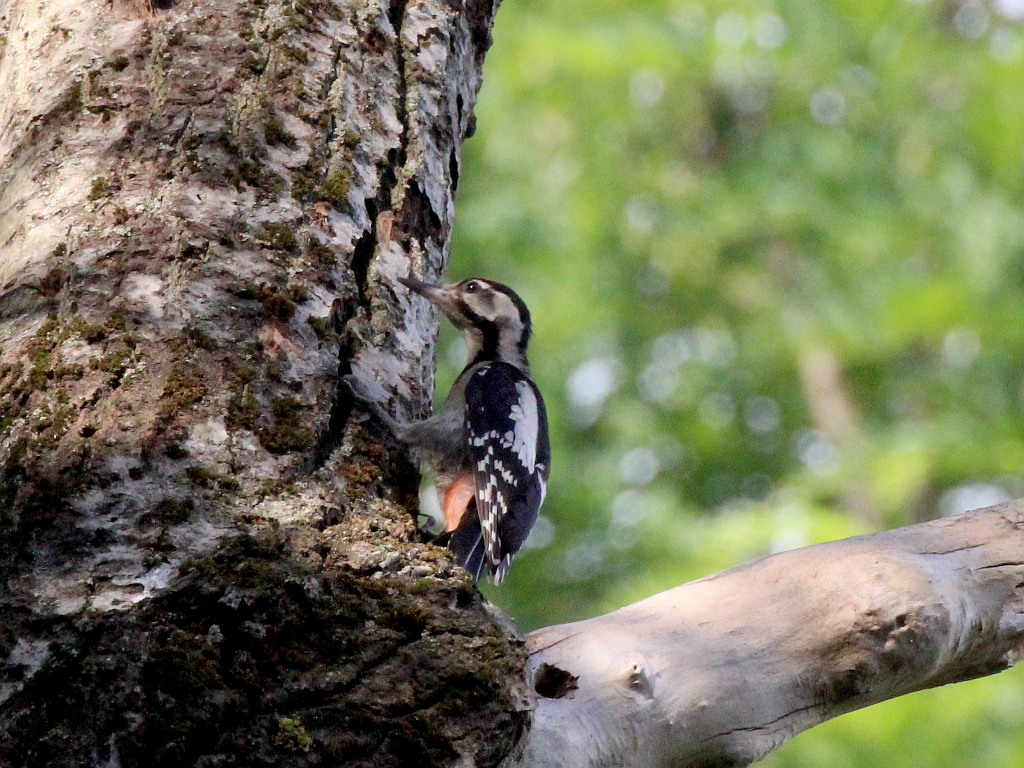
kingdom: Animalia
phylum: Chordata
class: Aves
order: Piciformes
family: Picidae
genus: Dendrocopos
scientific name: Dendrocopos syriacus
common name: Syrian woodpecker
